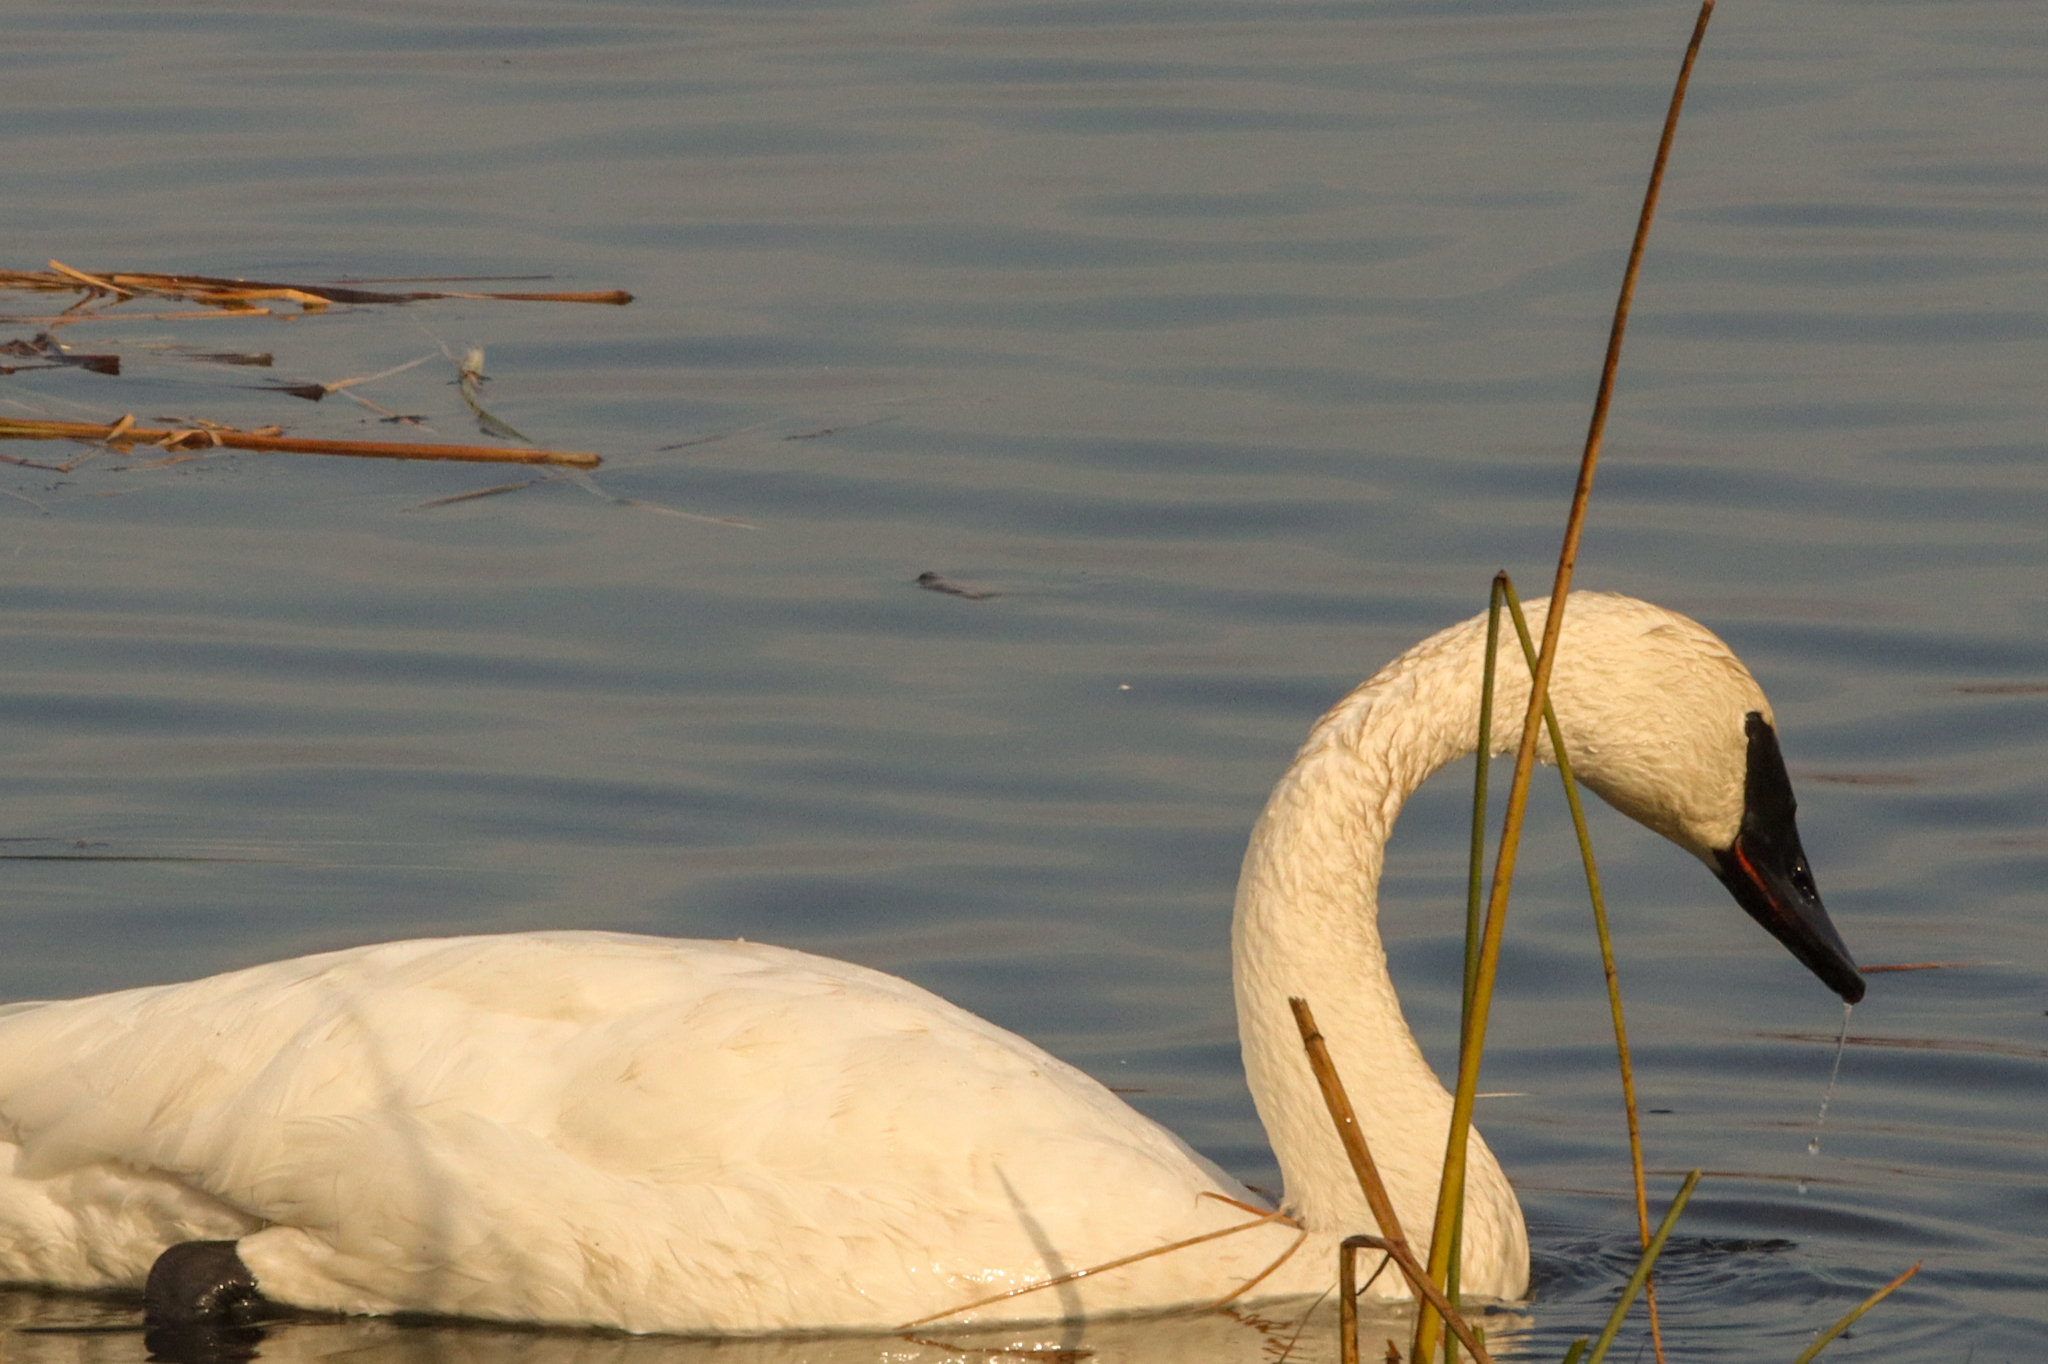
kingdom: Animalia
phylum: Chordata
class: Aves
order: Anseriformes
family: Anatidae
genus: Cygnus
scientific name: Cygnus buccinator
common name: Trumpeter swan
